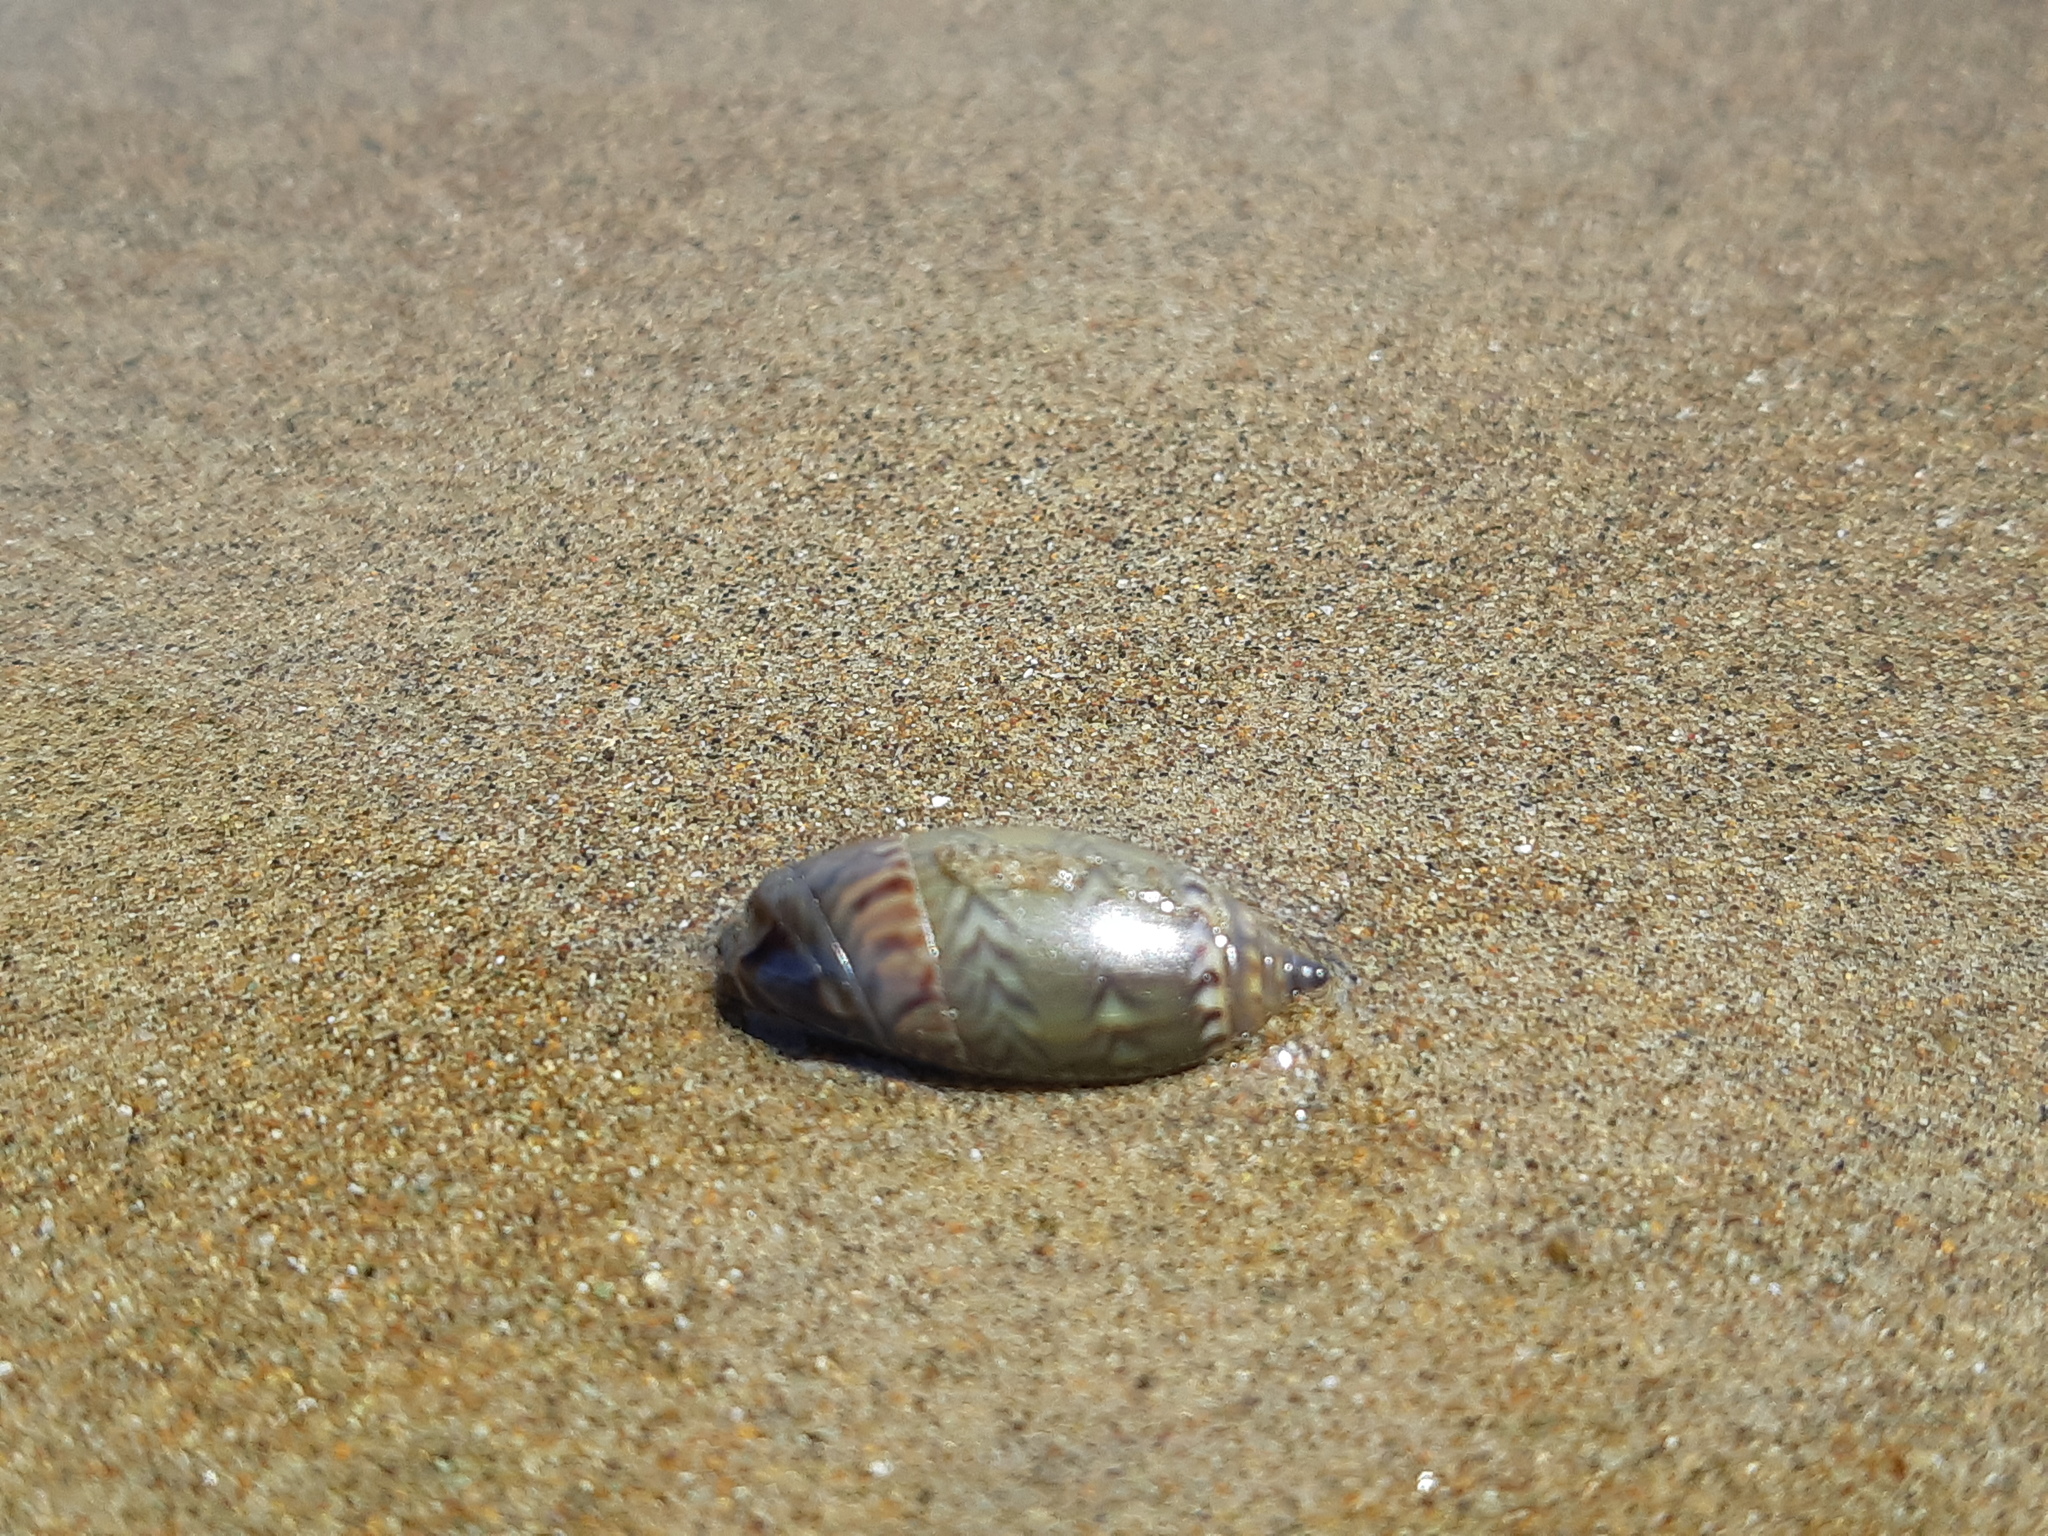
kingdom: Animalia
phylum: Mollusca
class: Gastropoda
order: Neogastropoda
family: Olividae
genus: Oliva
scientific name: Oliva undatella
